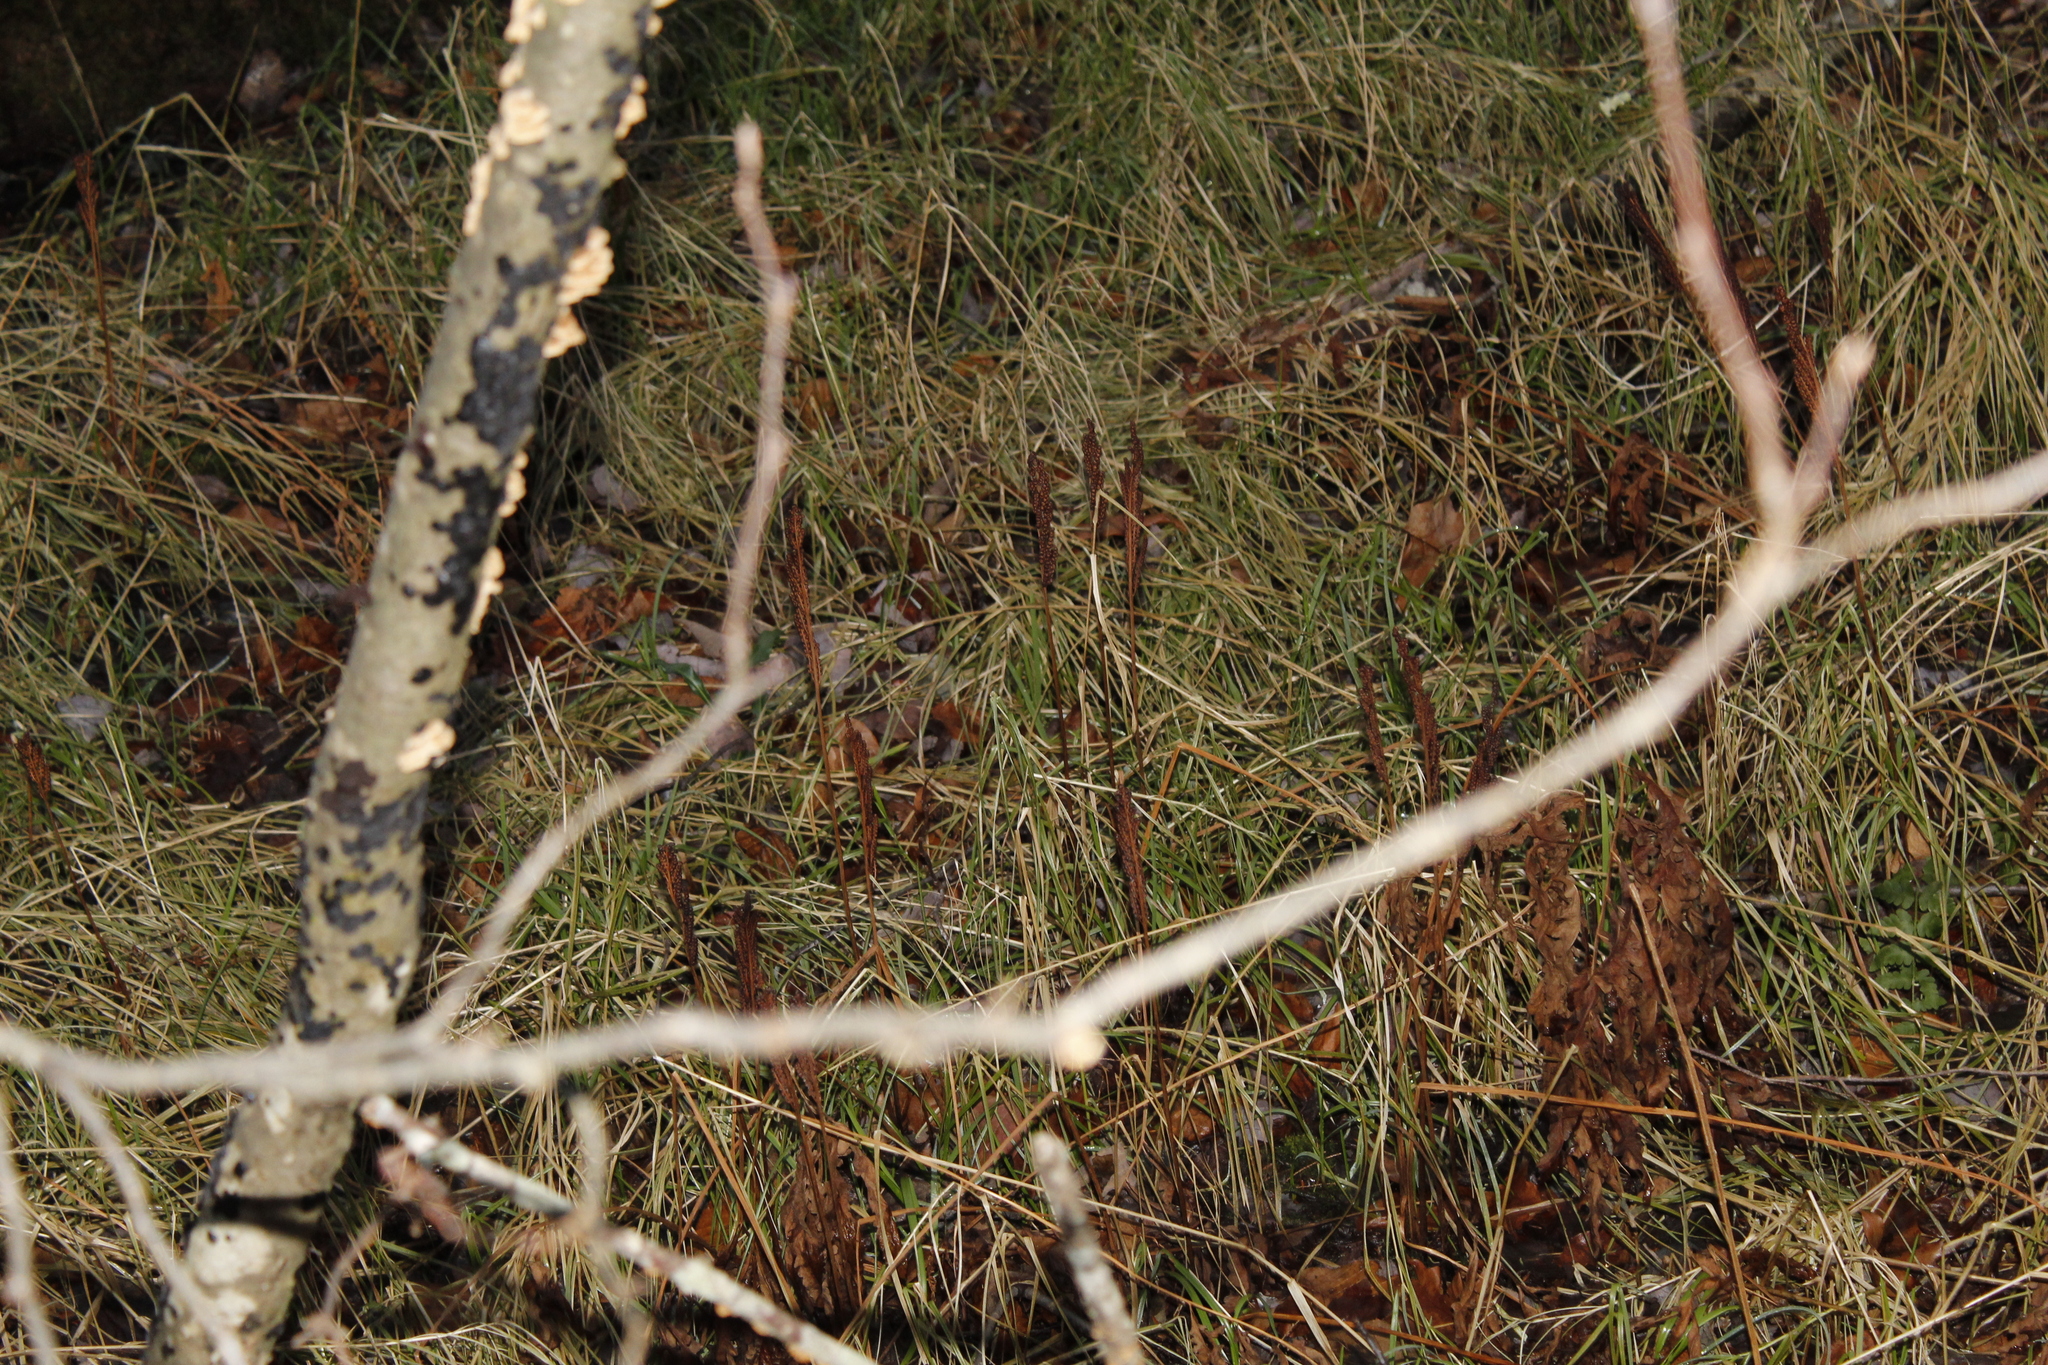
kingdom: Plantae
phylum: Tracheophyta
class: Polypodiopsida
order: Polypodiales
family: Onocleaceae
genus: Onoclea
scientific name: Onoclea sensibilis
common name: Sensitive fern
